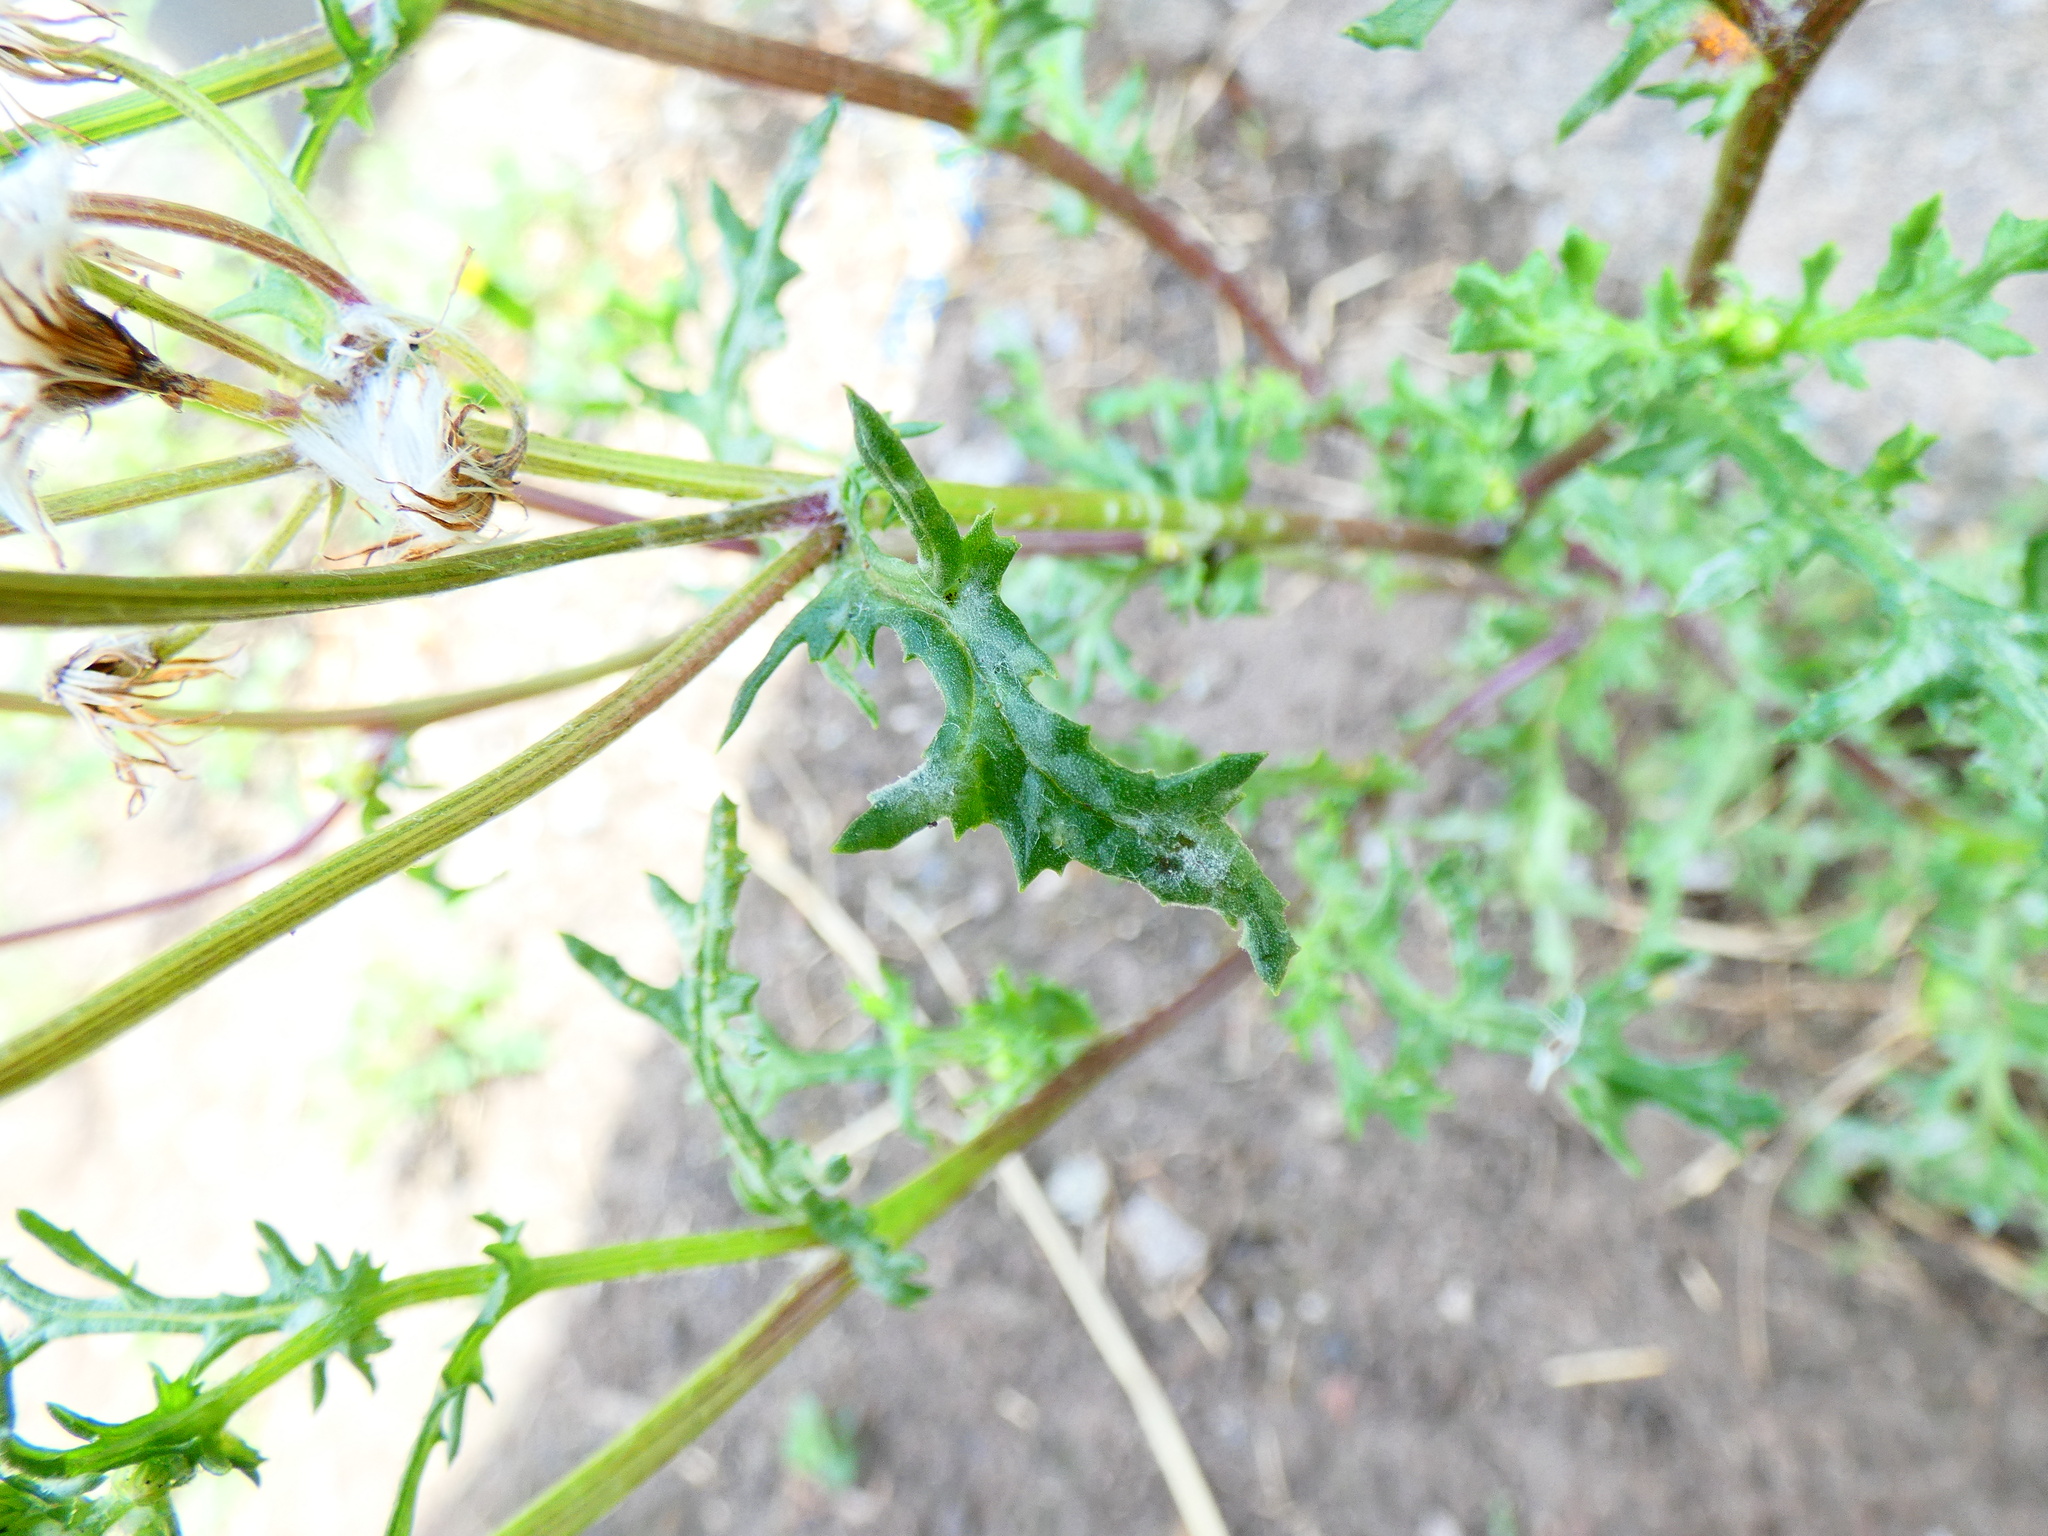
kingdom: Fungi
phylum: Ascomycota
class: Leotiomycetes
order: Helotiales
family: Erysiphaceae
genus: Golovinomyces
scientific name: Golovinomyces fischeri
